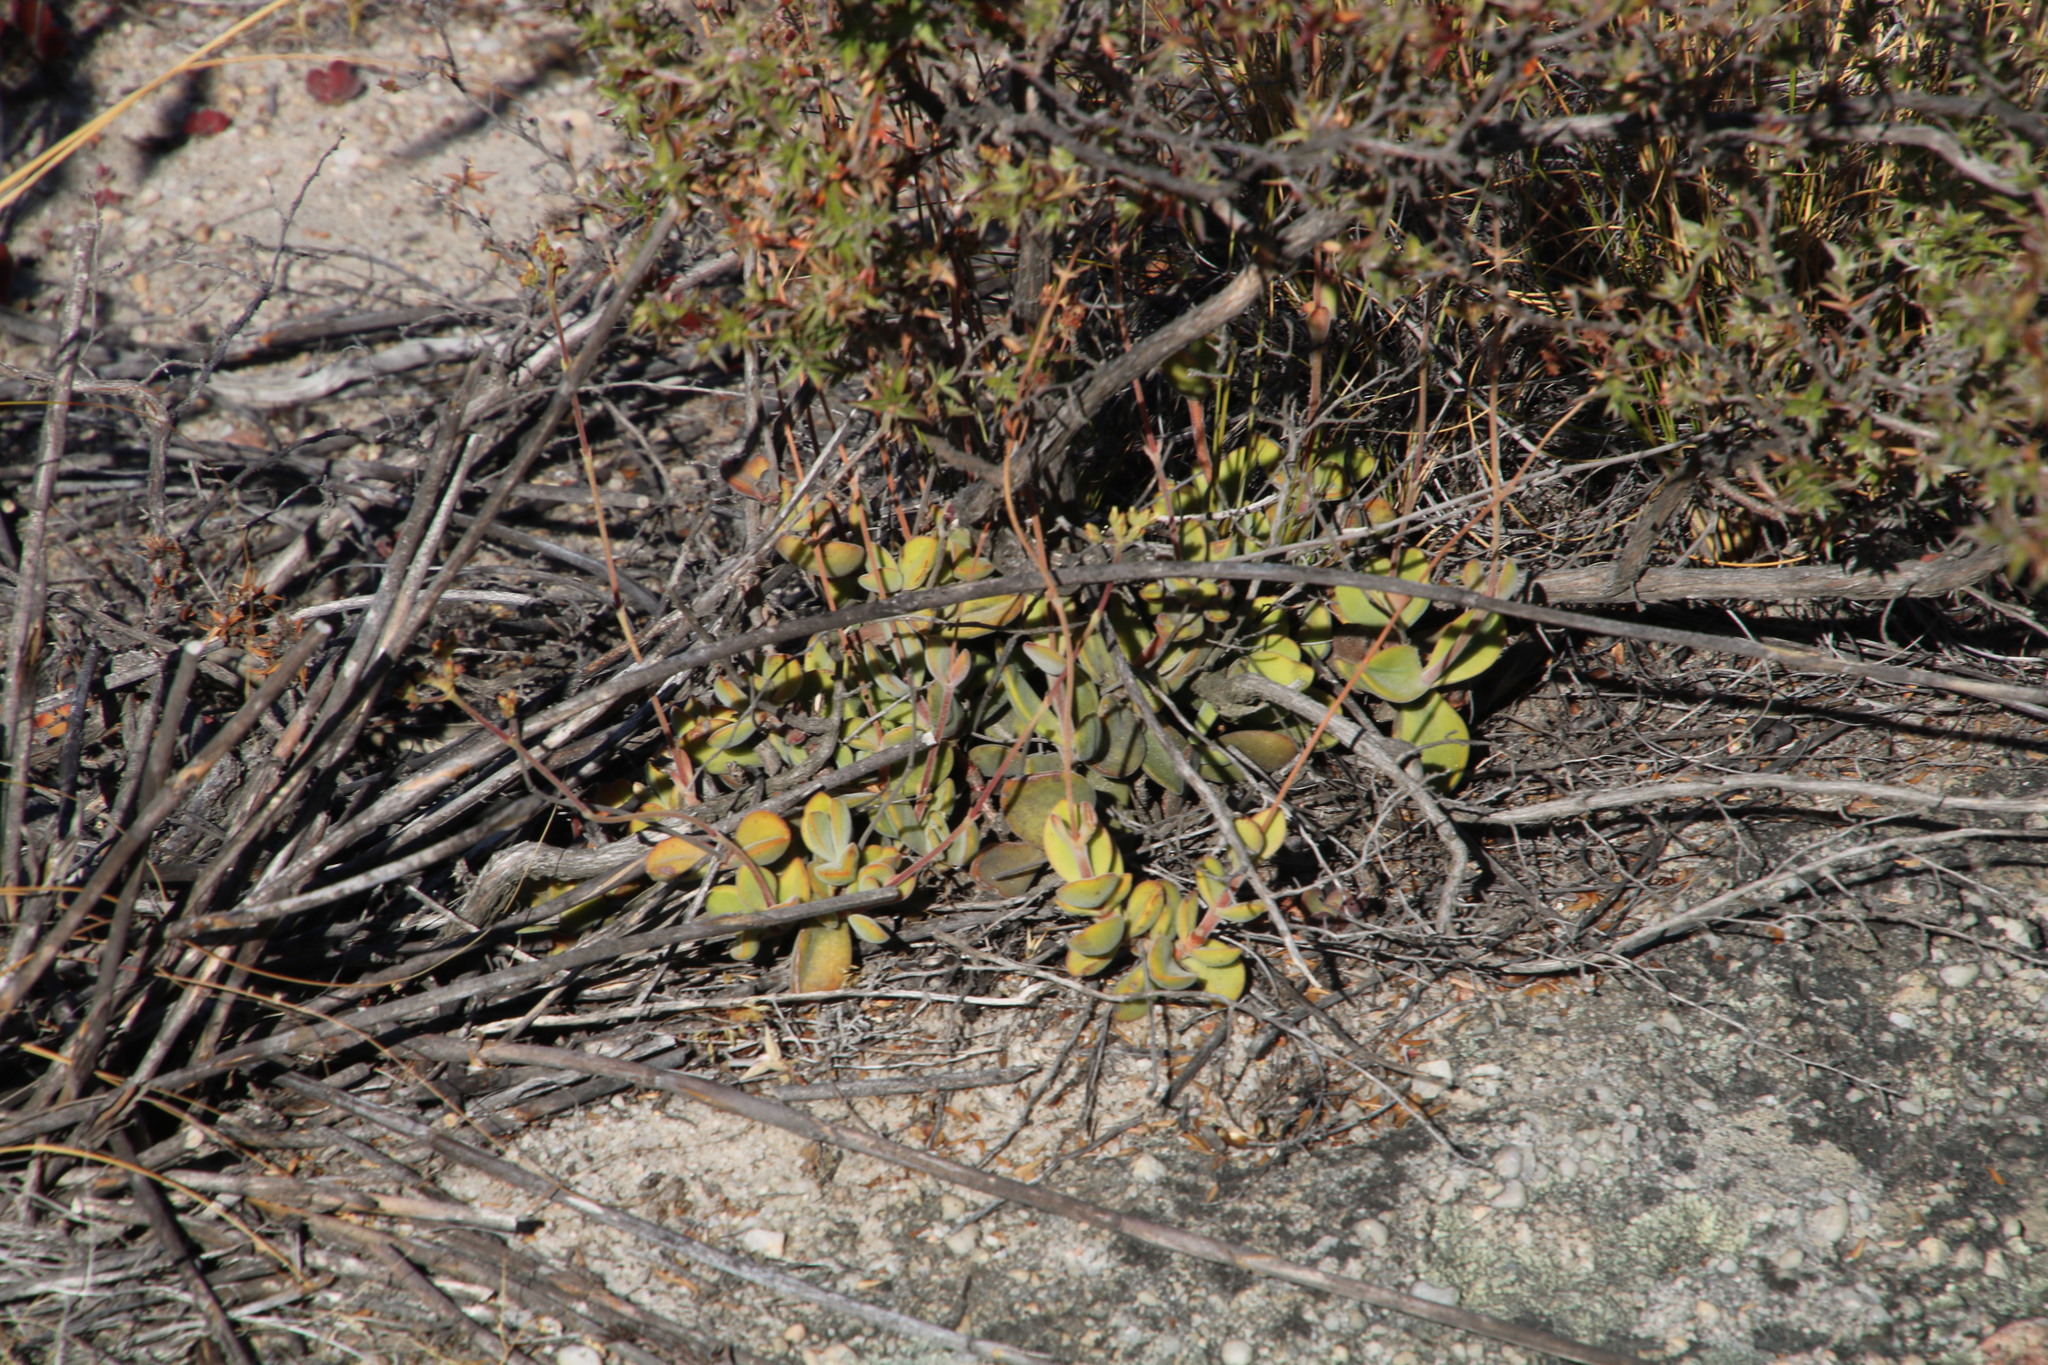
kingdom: Plantae
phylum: Tracheophyta
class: Magnoliopsida
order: Saxifragales
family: Crassulaceae
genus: Crassula
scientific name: Crassula atropurpurea
